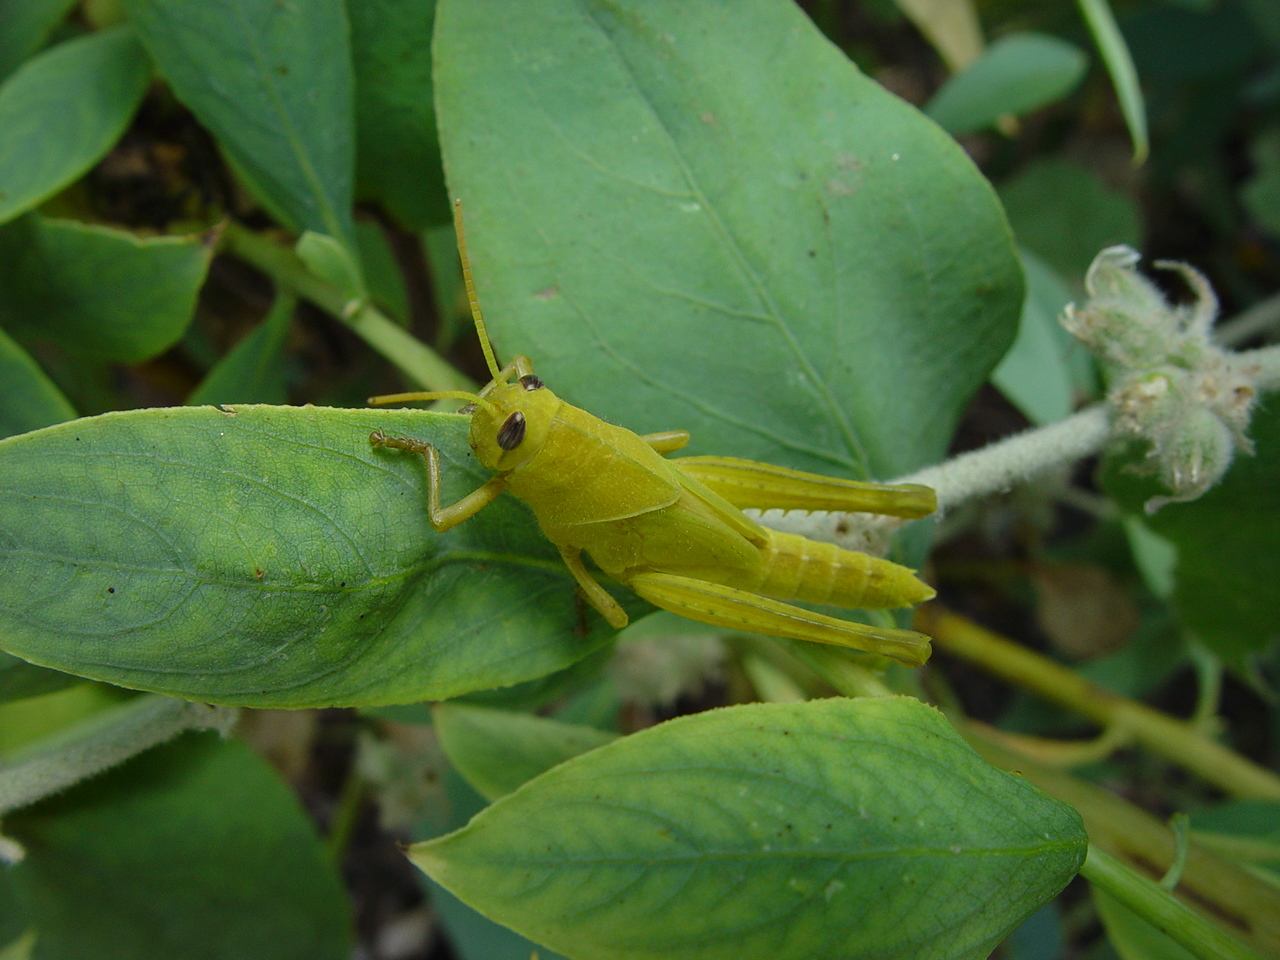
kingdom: Animalia
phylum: Arthropoda
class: Insecta
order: Orthoptera
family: Acrididae
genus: Schistocerca
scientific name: Schistocerca nitens
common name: Vagrant grasshopper
